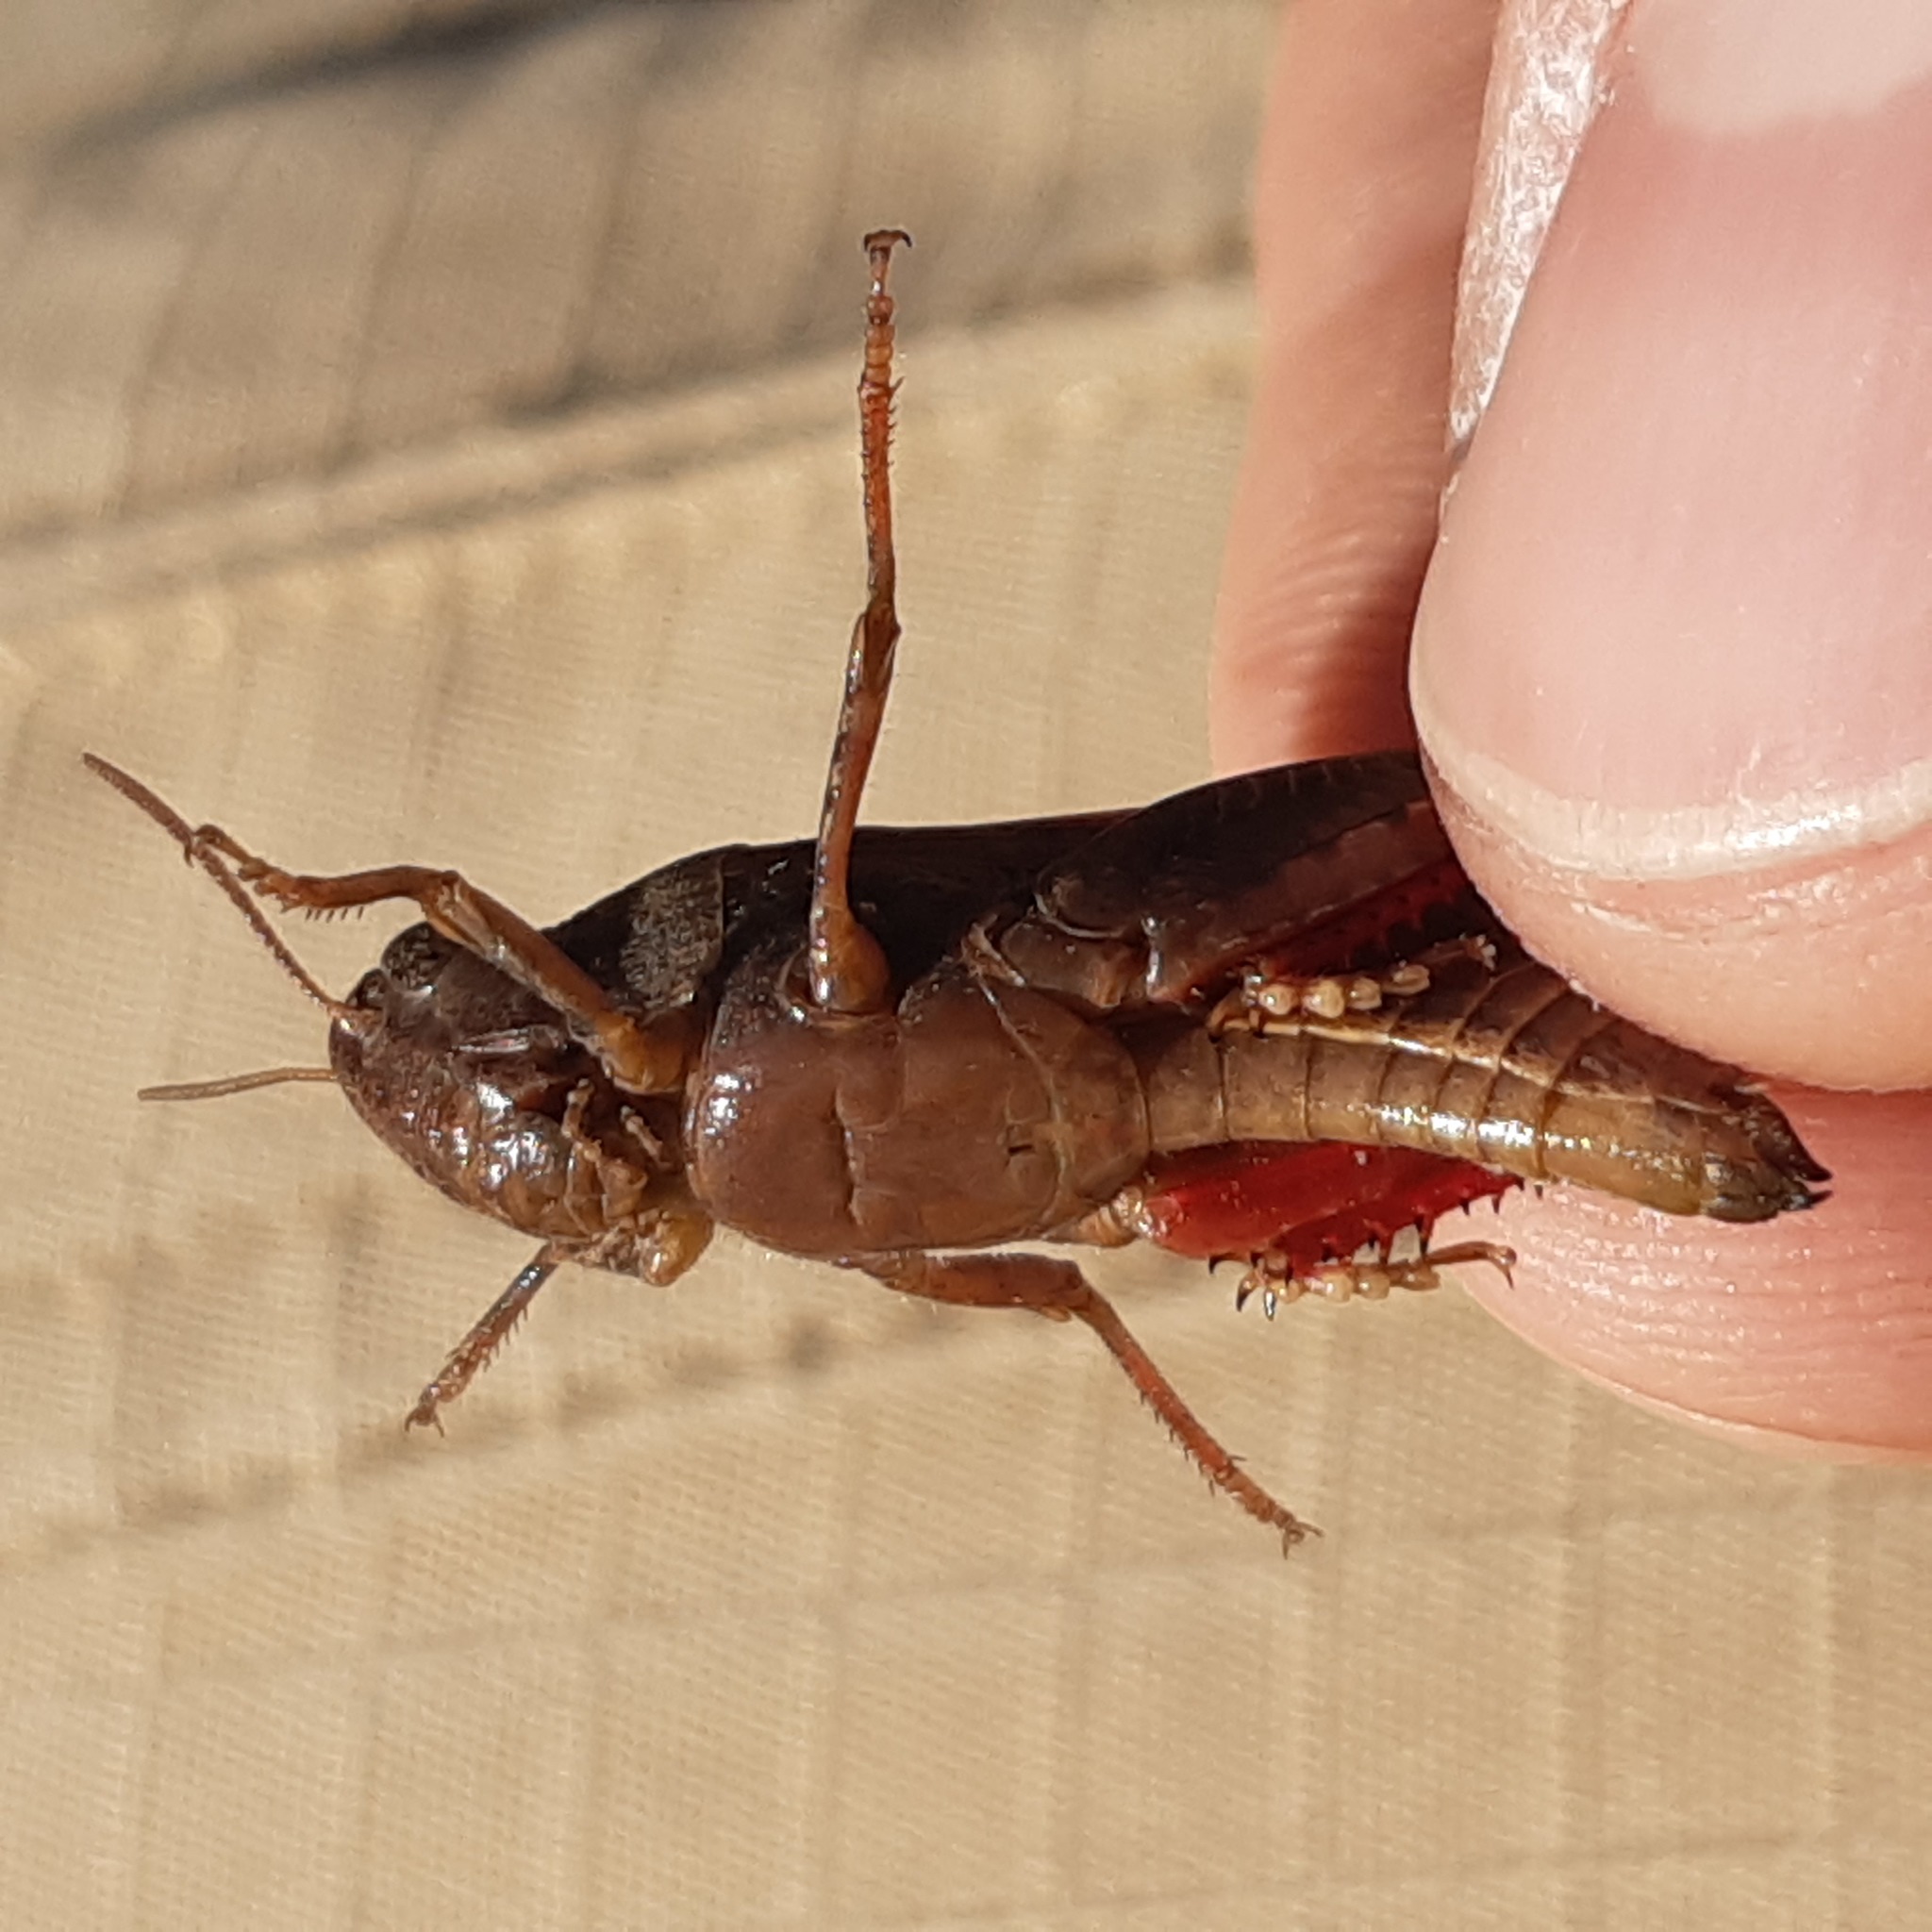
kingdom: Animalia
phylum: Arthropoda
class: Insecta
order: Orthoptera
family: Acrididae
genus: Aiolopus
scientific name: Aiolopus strepens
